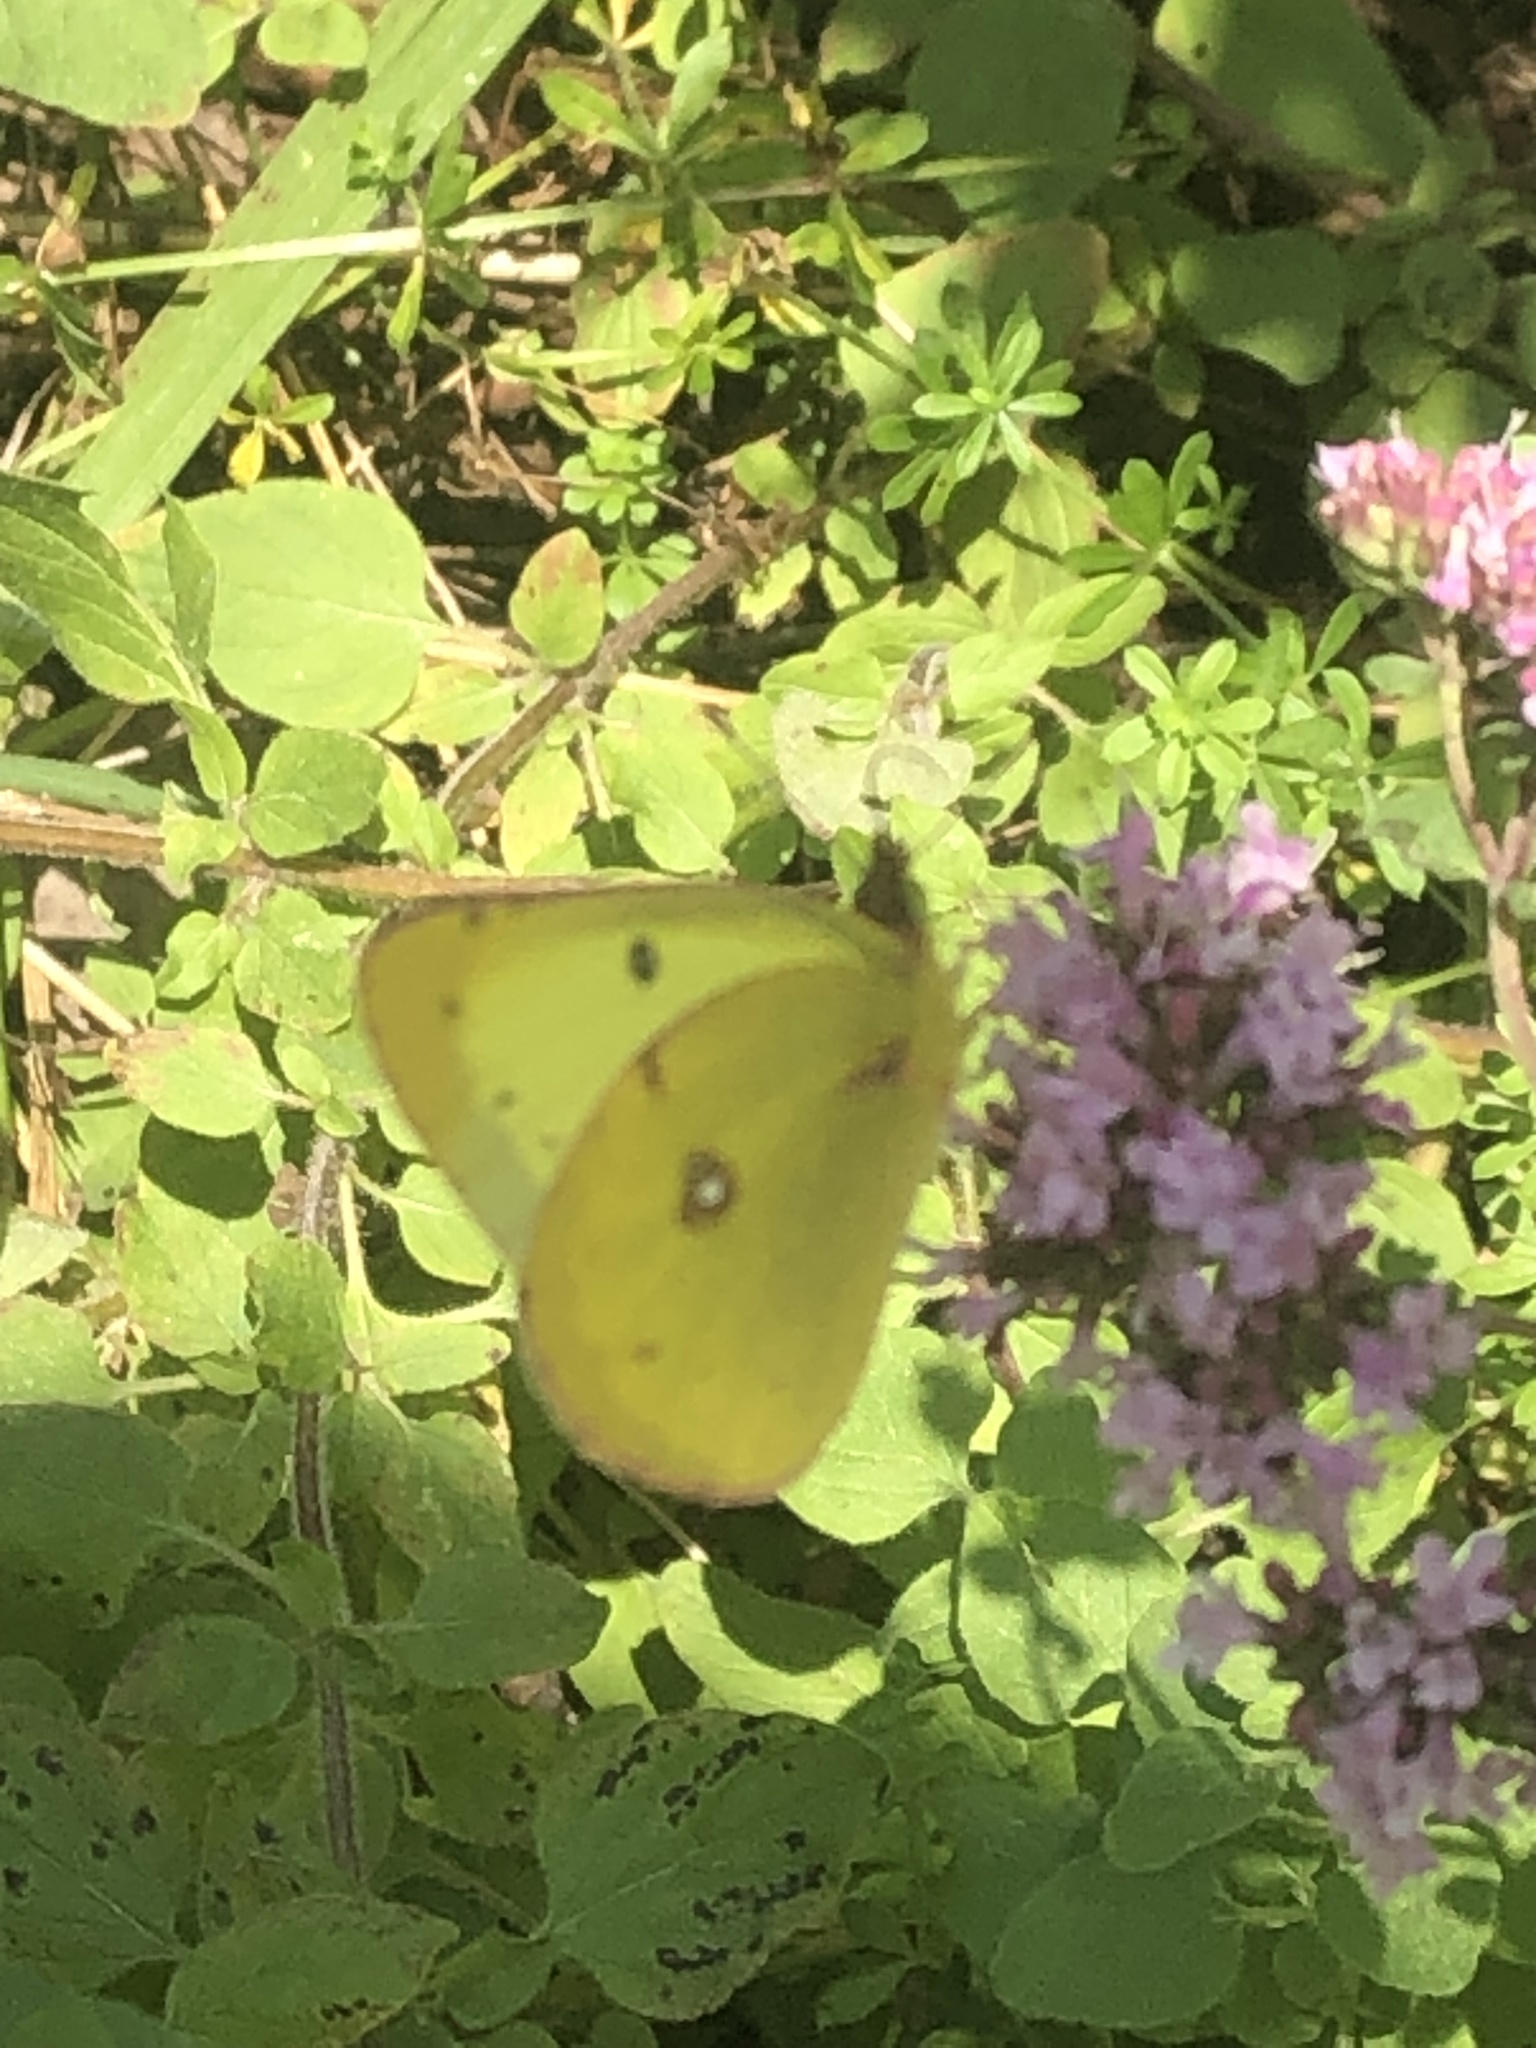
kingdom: Animalia
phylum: Arthropoda
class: Insecta
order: Lepidoptera
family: Pieridae
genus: Colias
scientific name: Colias philodice
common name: Clouded sulphur
